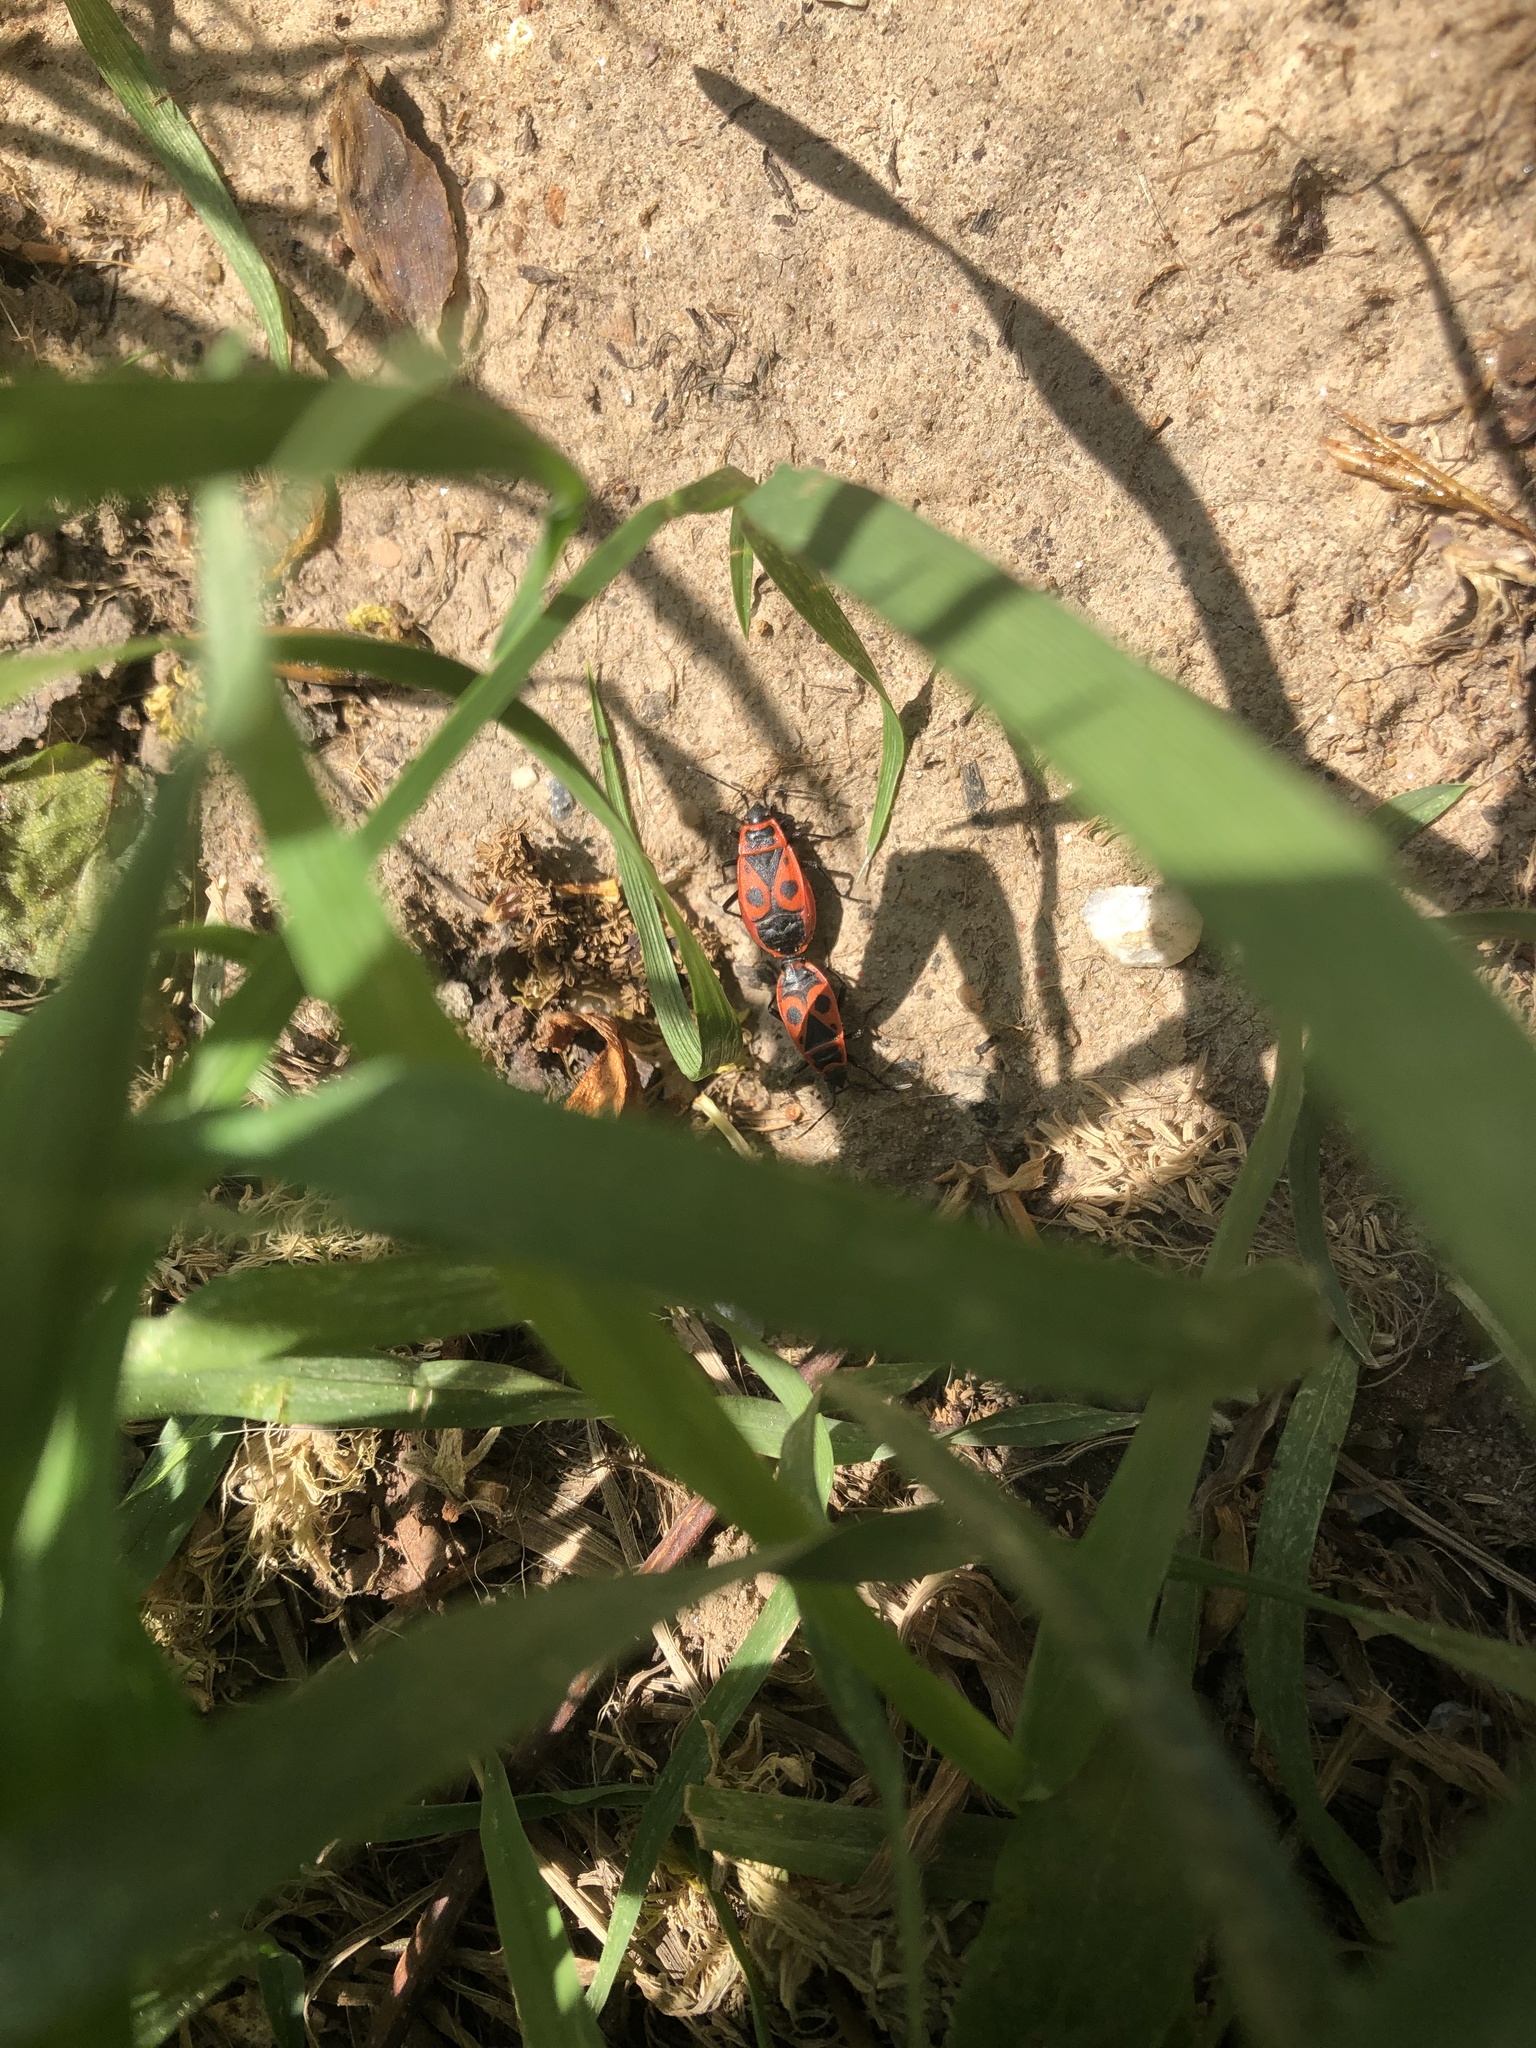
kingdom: Animalia
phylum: Arthropoda
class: Insecta
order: Hemiptera
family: Pyrrhocoridae
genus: Pyrrhocoris
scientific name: Pyrrhocoris apterus
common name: Firebug
